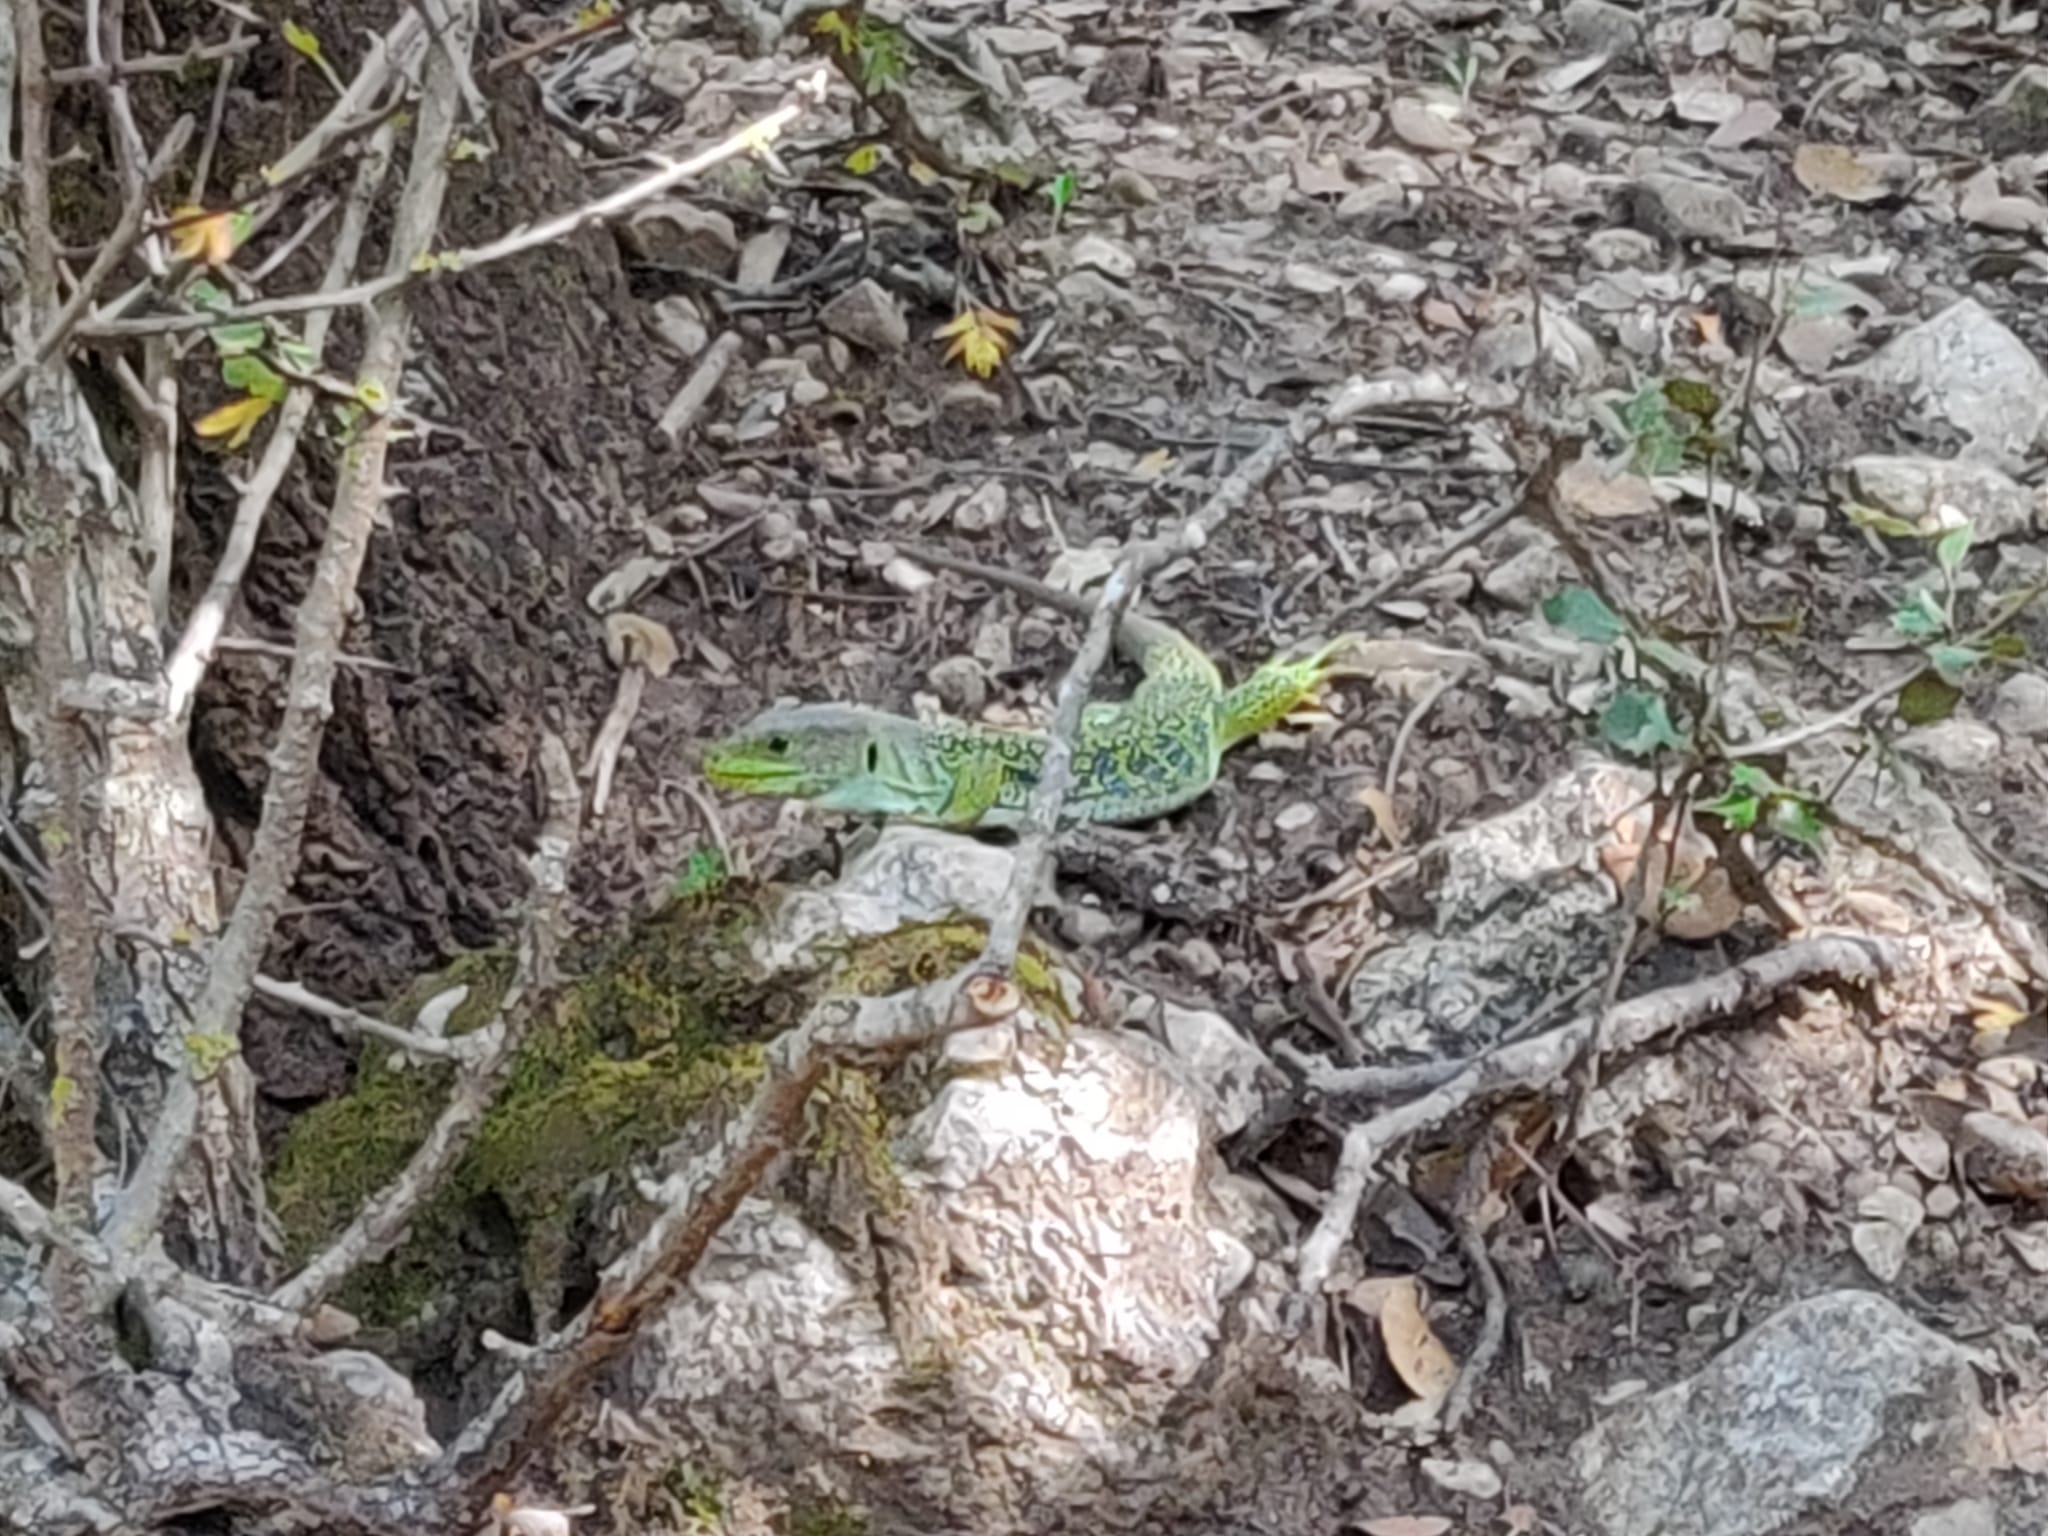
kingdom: Animalia
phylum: Chordata
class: Squamata
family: Lacertidae
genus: Timon
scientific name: Timon lepidus
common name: Ocellated lizard
